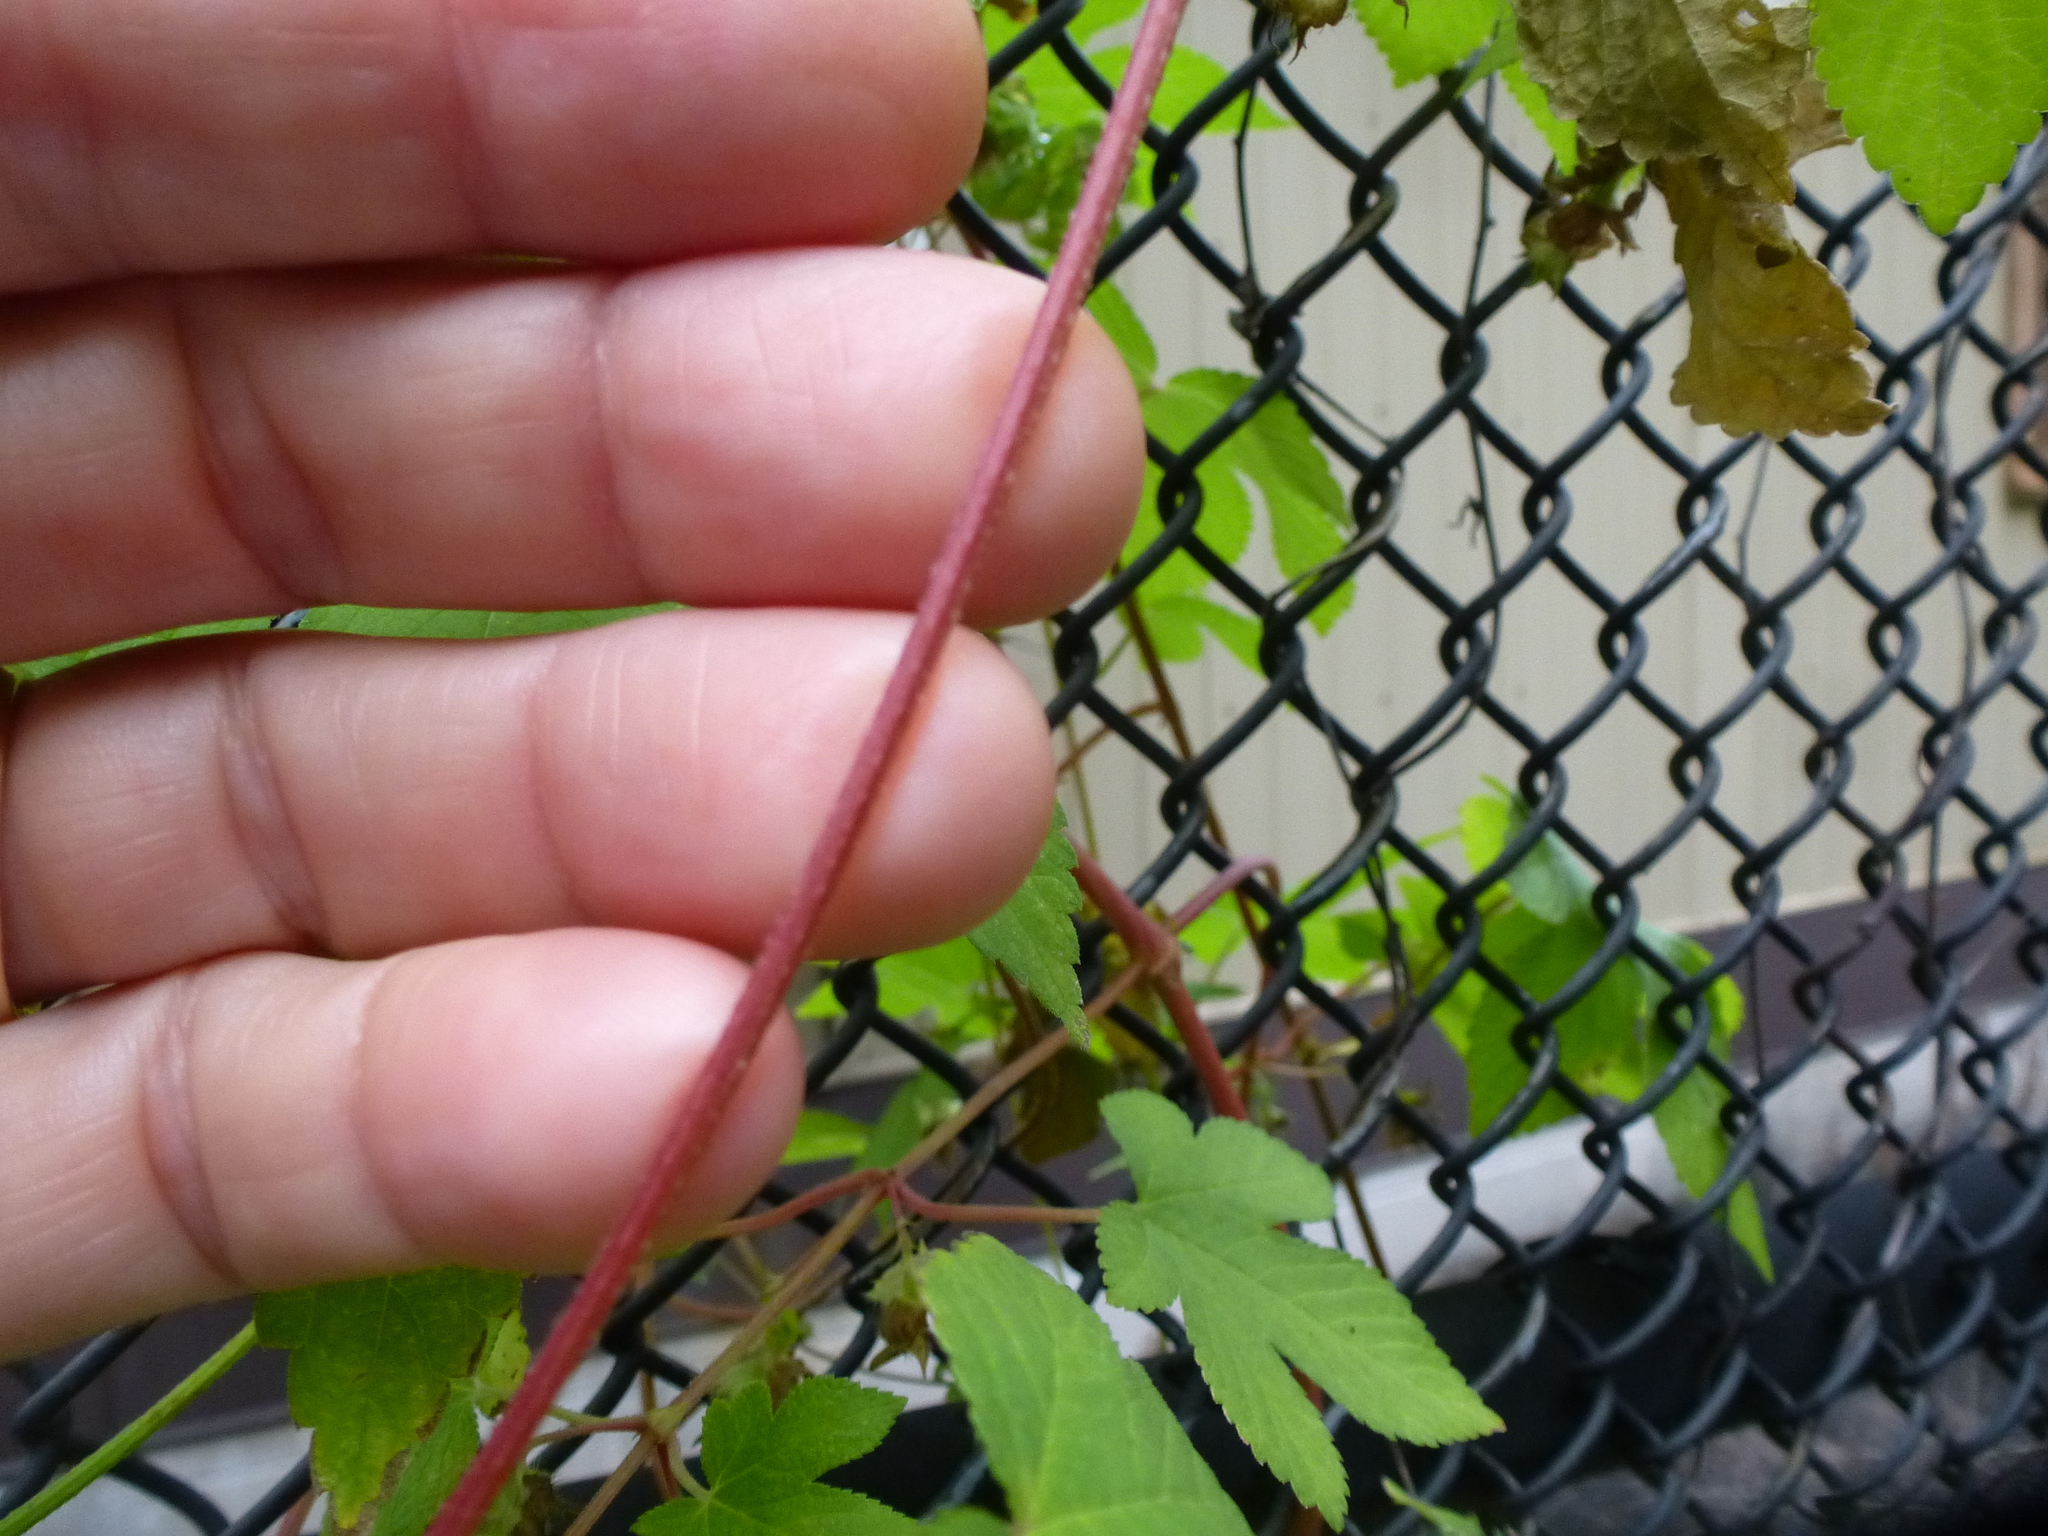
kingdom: Plantae
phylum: Tracheophyta
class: Magnoliopsida
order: Rosales
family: Cannabaceae
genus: Humulus
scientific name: Humulus scandens
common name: Japanese hop
